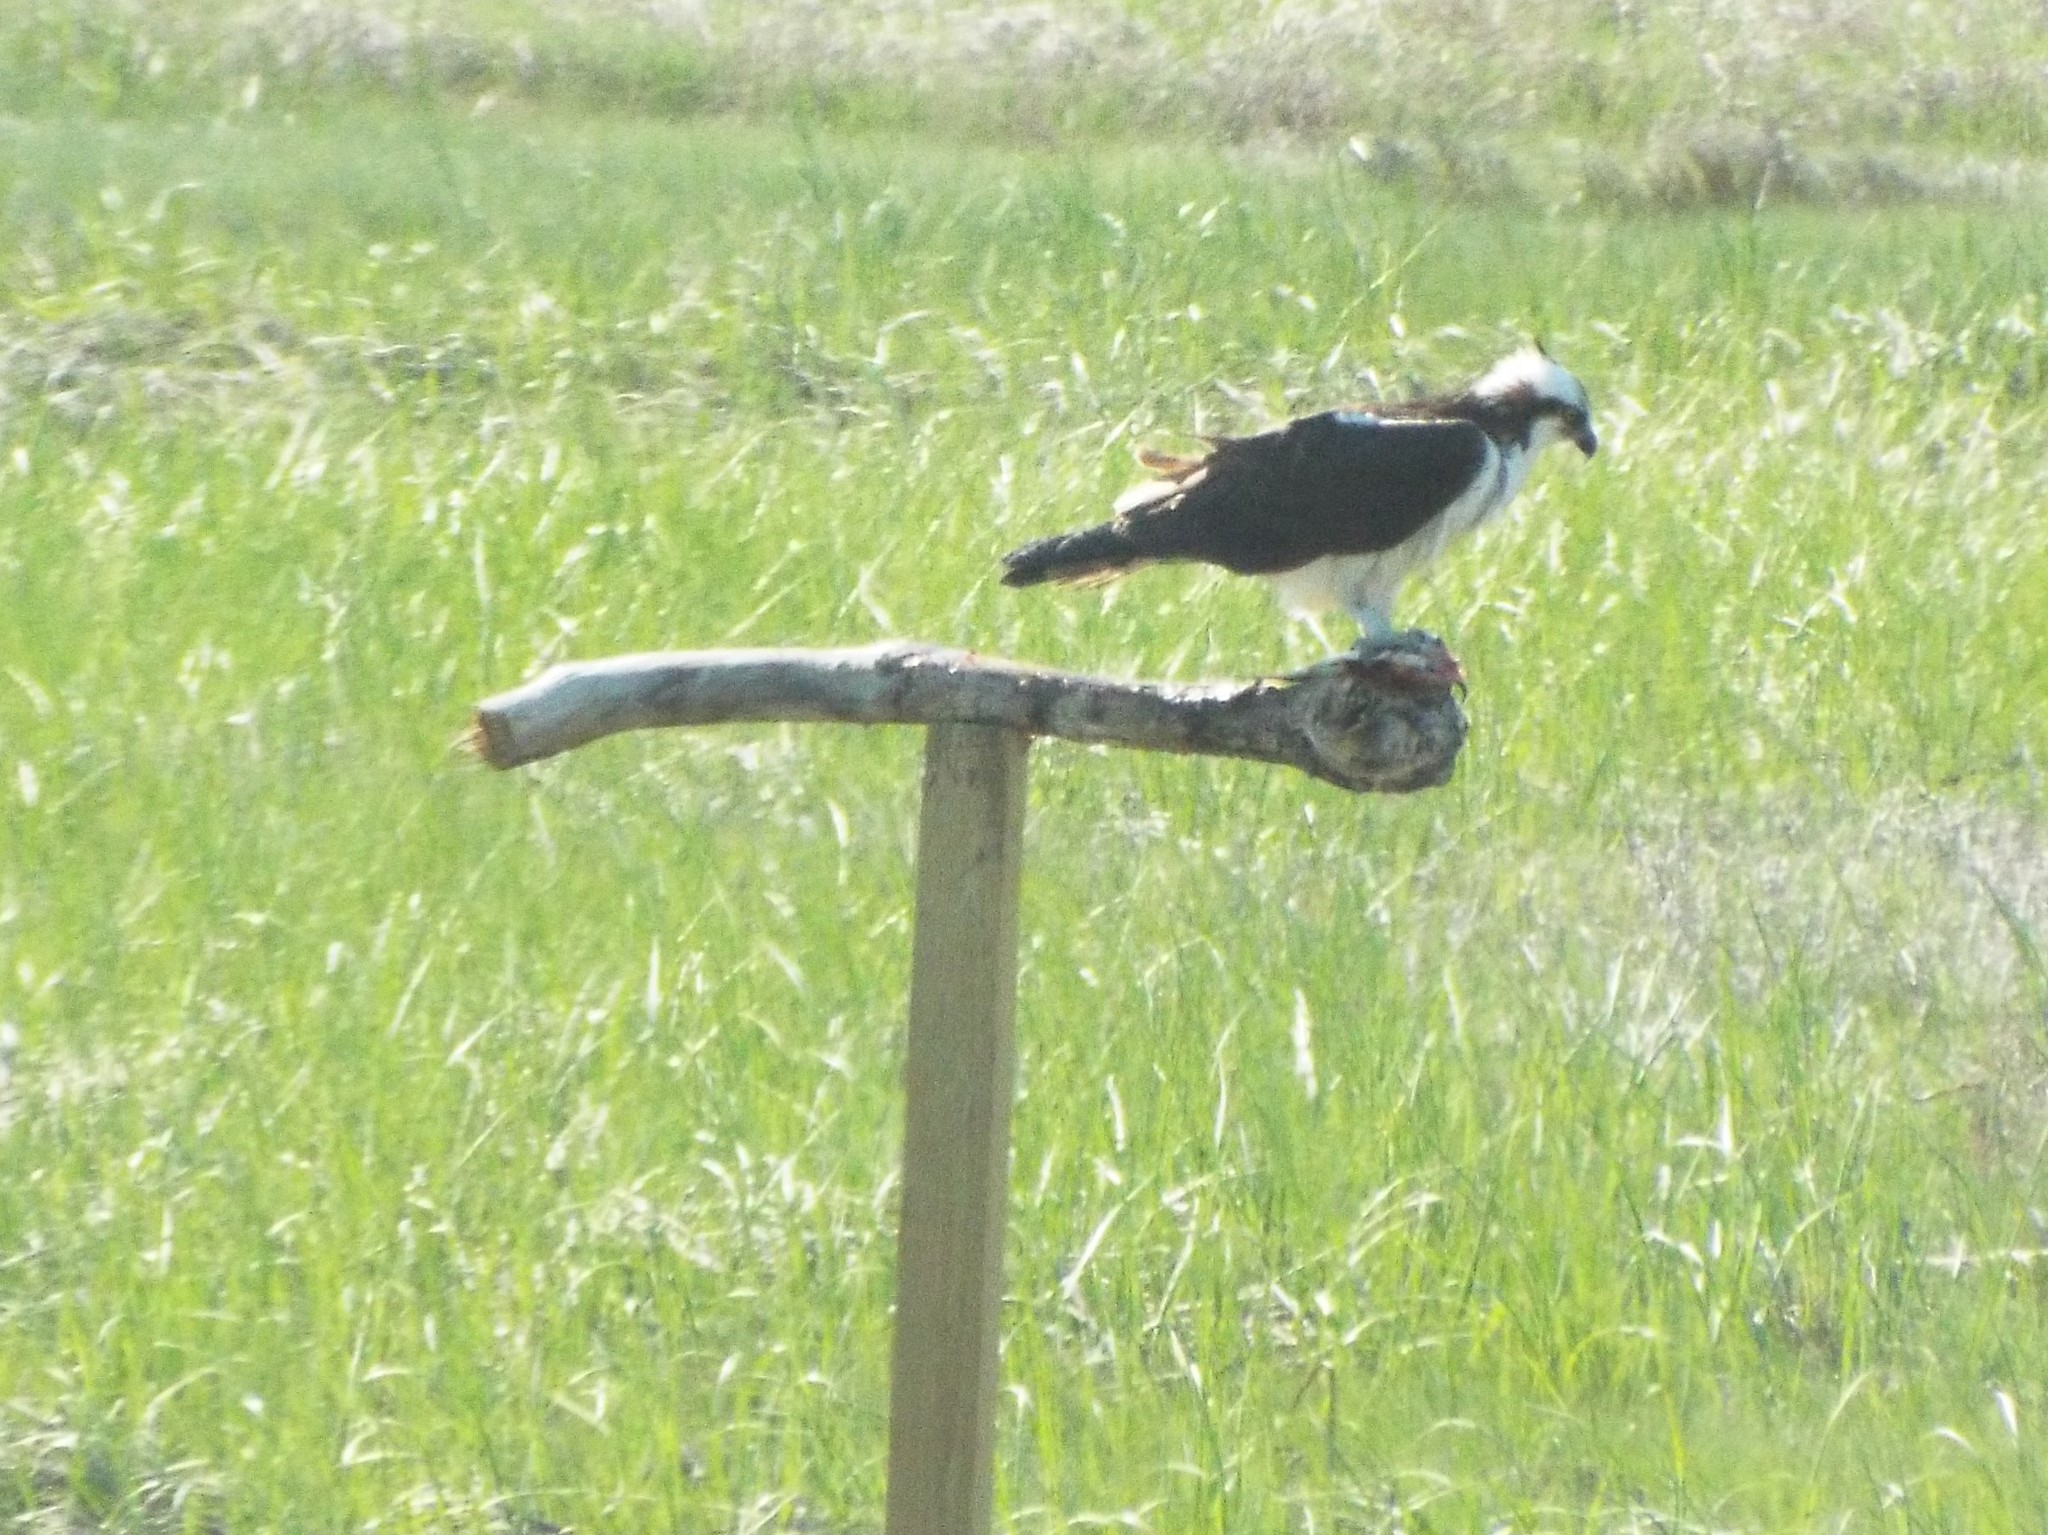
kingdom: Animalia
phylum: Chordata
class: Aves
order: Accipitriformes
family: Pandionidae
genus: Pandion
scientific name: Pandion haliaetus
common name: Osprey
